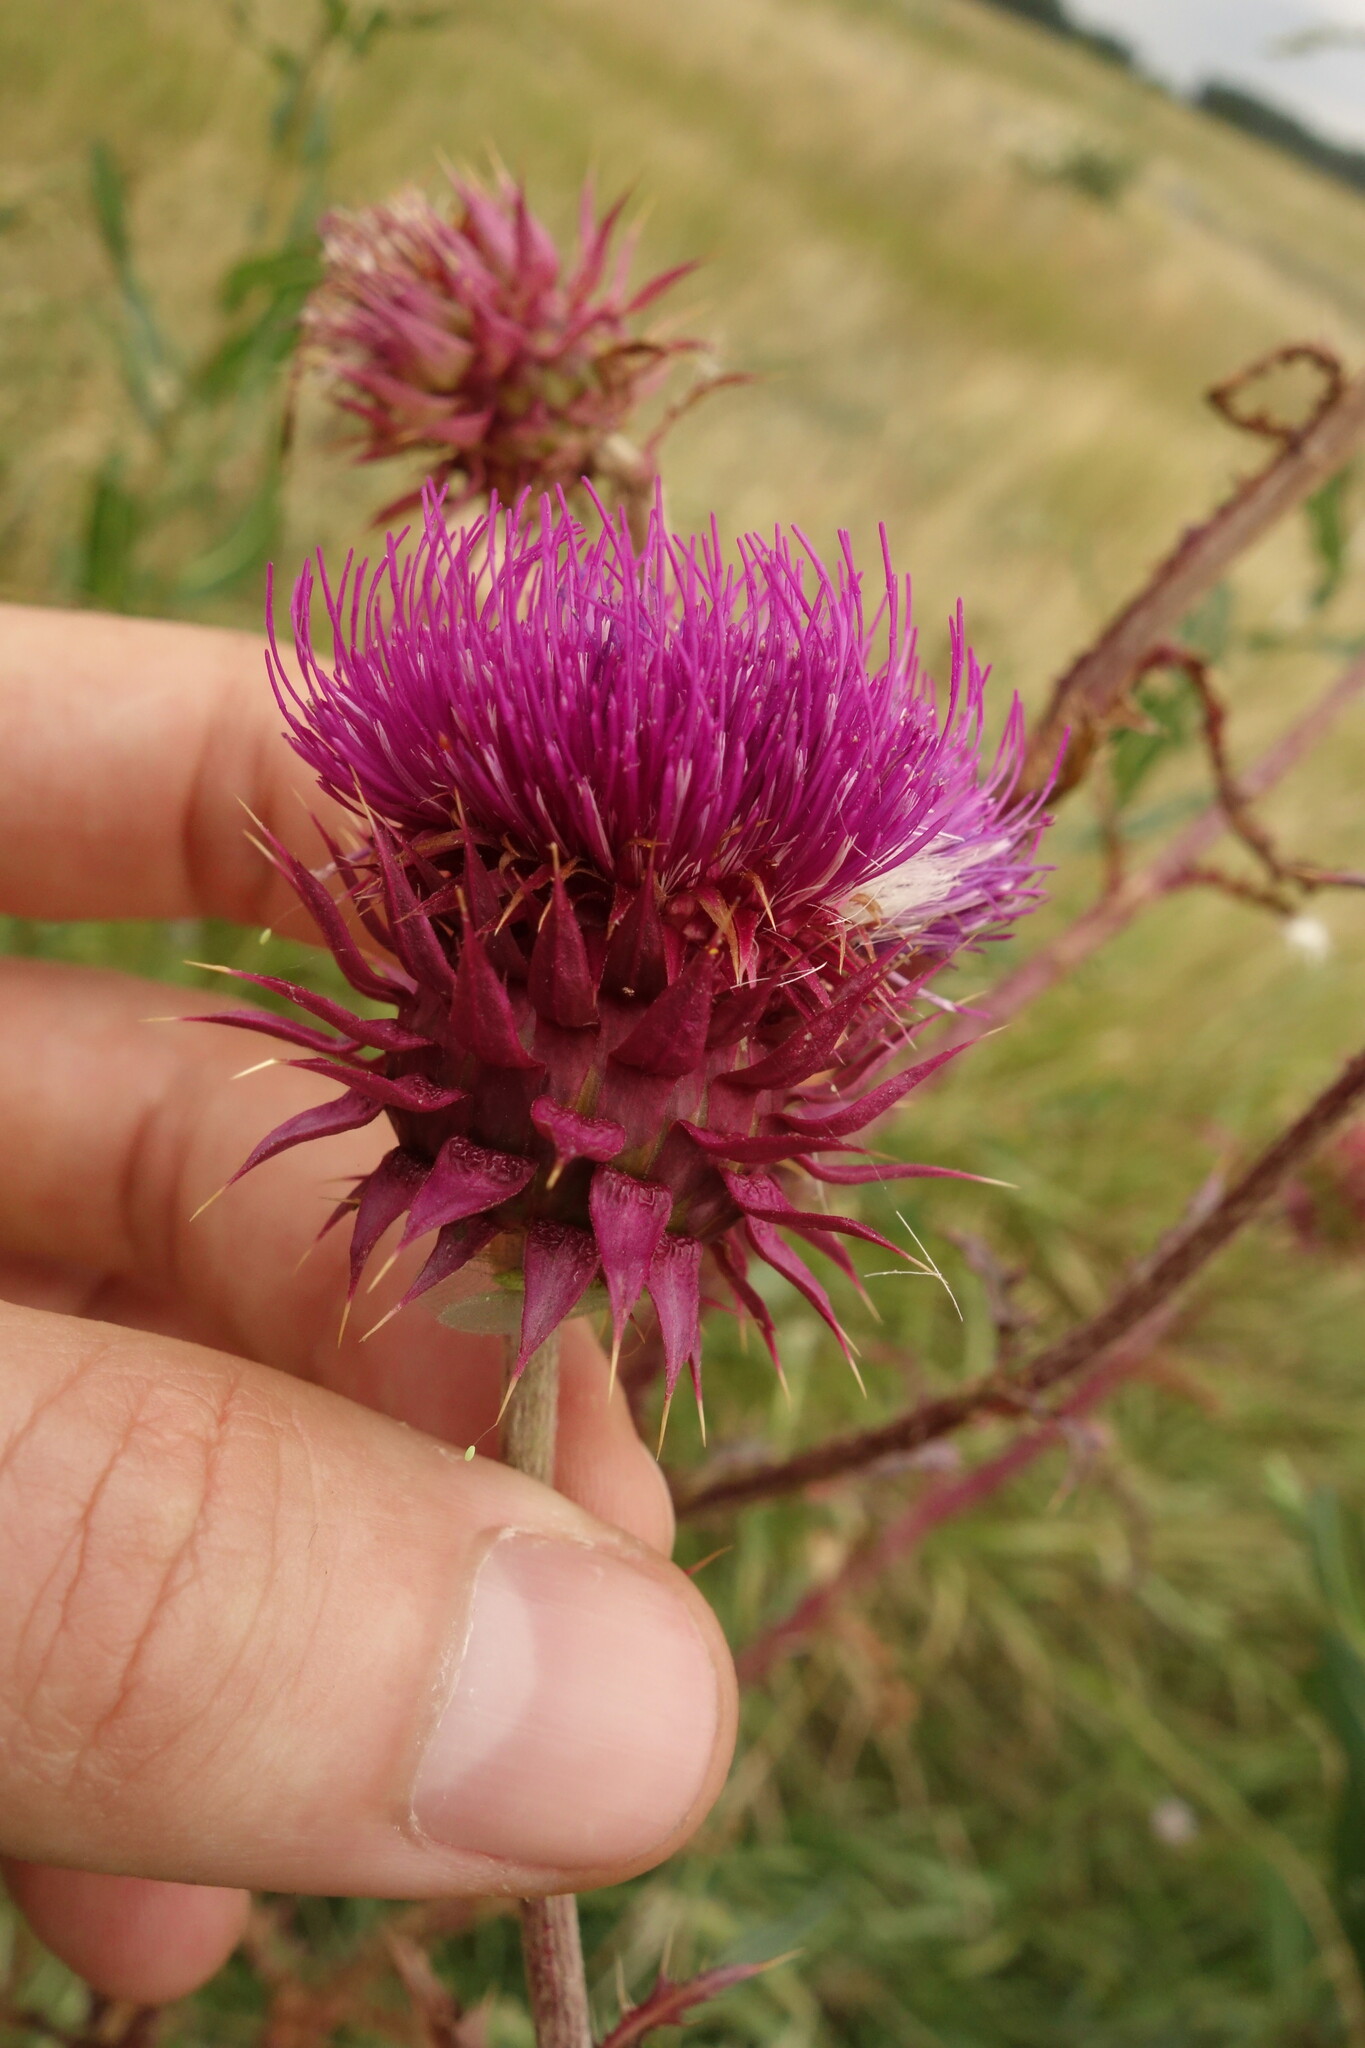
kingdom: Plantae
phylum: Tracheophyta
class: Magnoliopsida
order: Asterales
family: Asteraceae
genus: Carduus
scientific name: Carduus nutans
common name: Musk thistle
